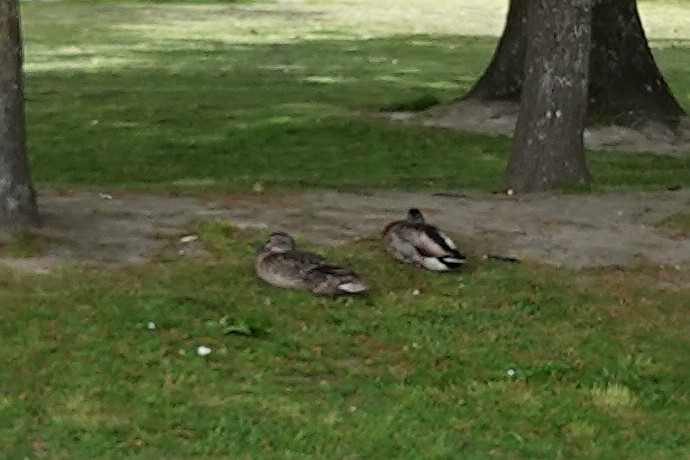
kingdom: Animalia
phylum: Chordata
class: Aves
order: Anseriformes
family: Anatidae
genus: Anas
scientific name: Anas
